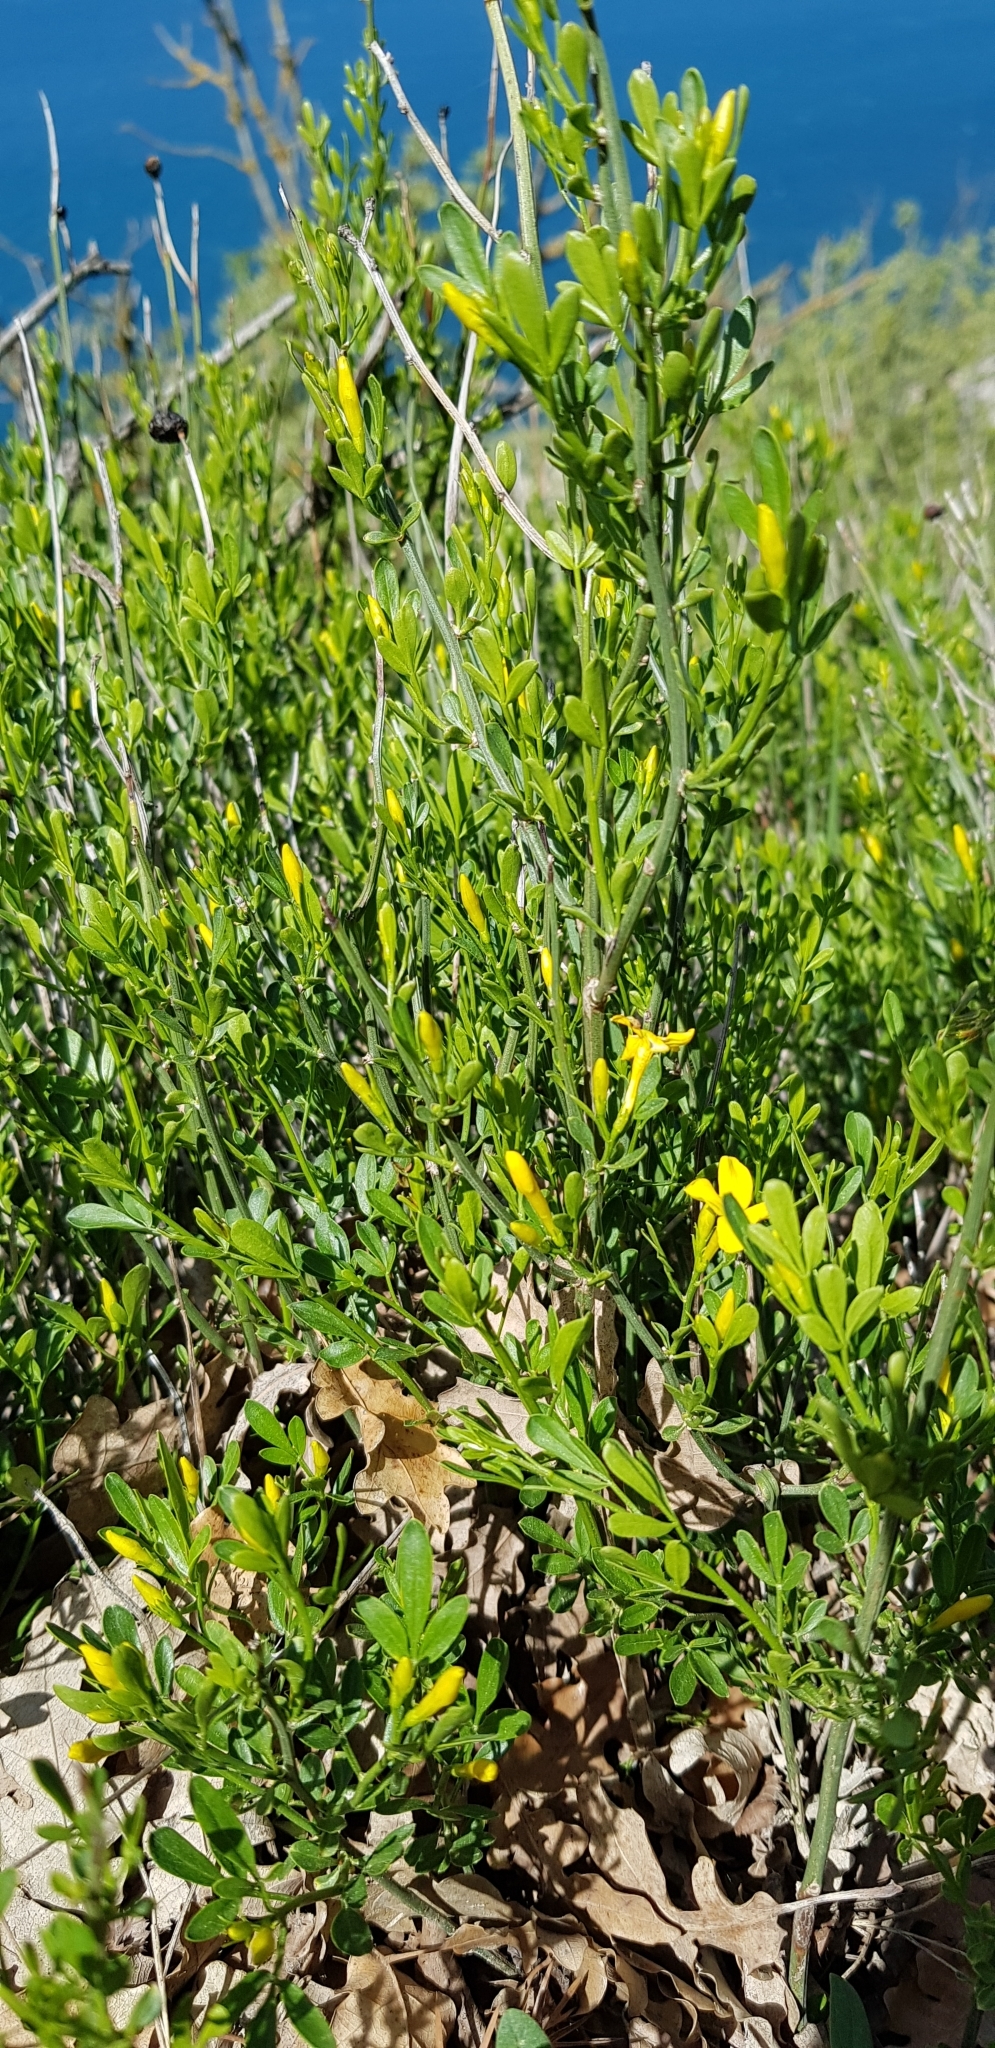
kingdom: Plantae
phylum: Tracheophyta
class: Magnoliopsida
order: Lamiales
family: Oleaceae
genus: Chrysojasminum
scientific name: Chrysojasminum fruticans
